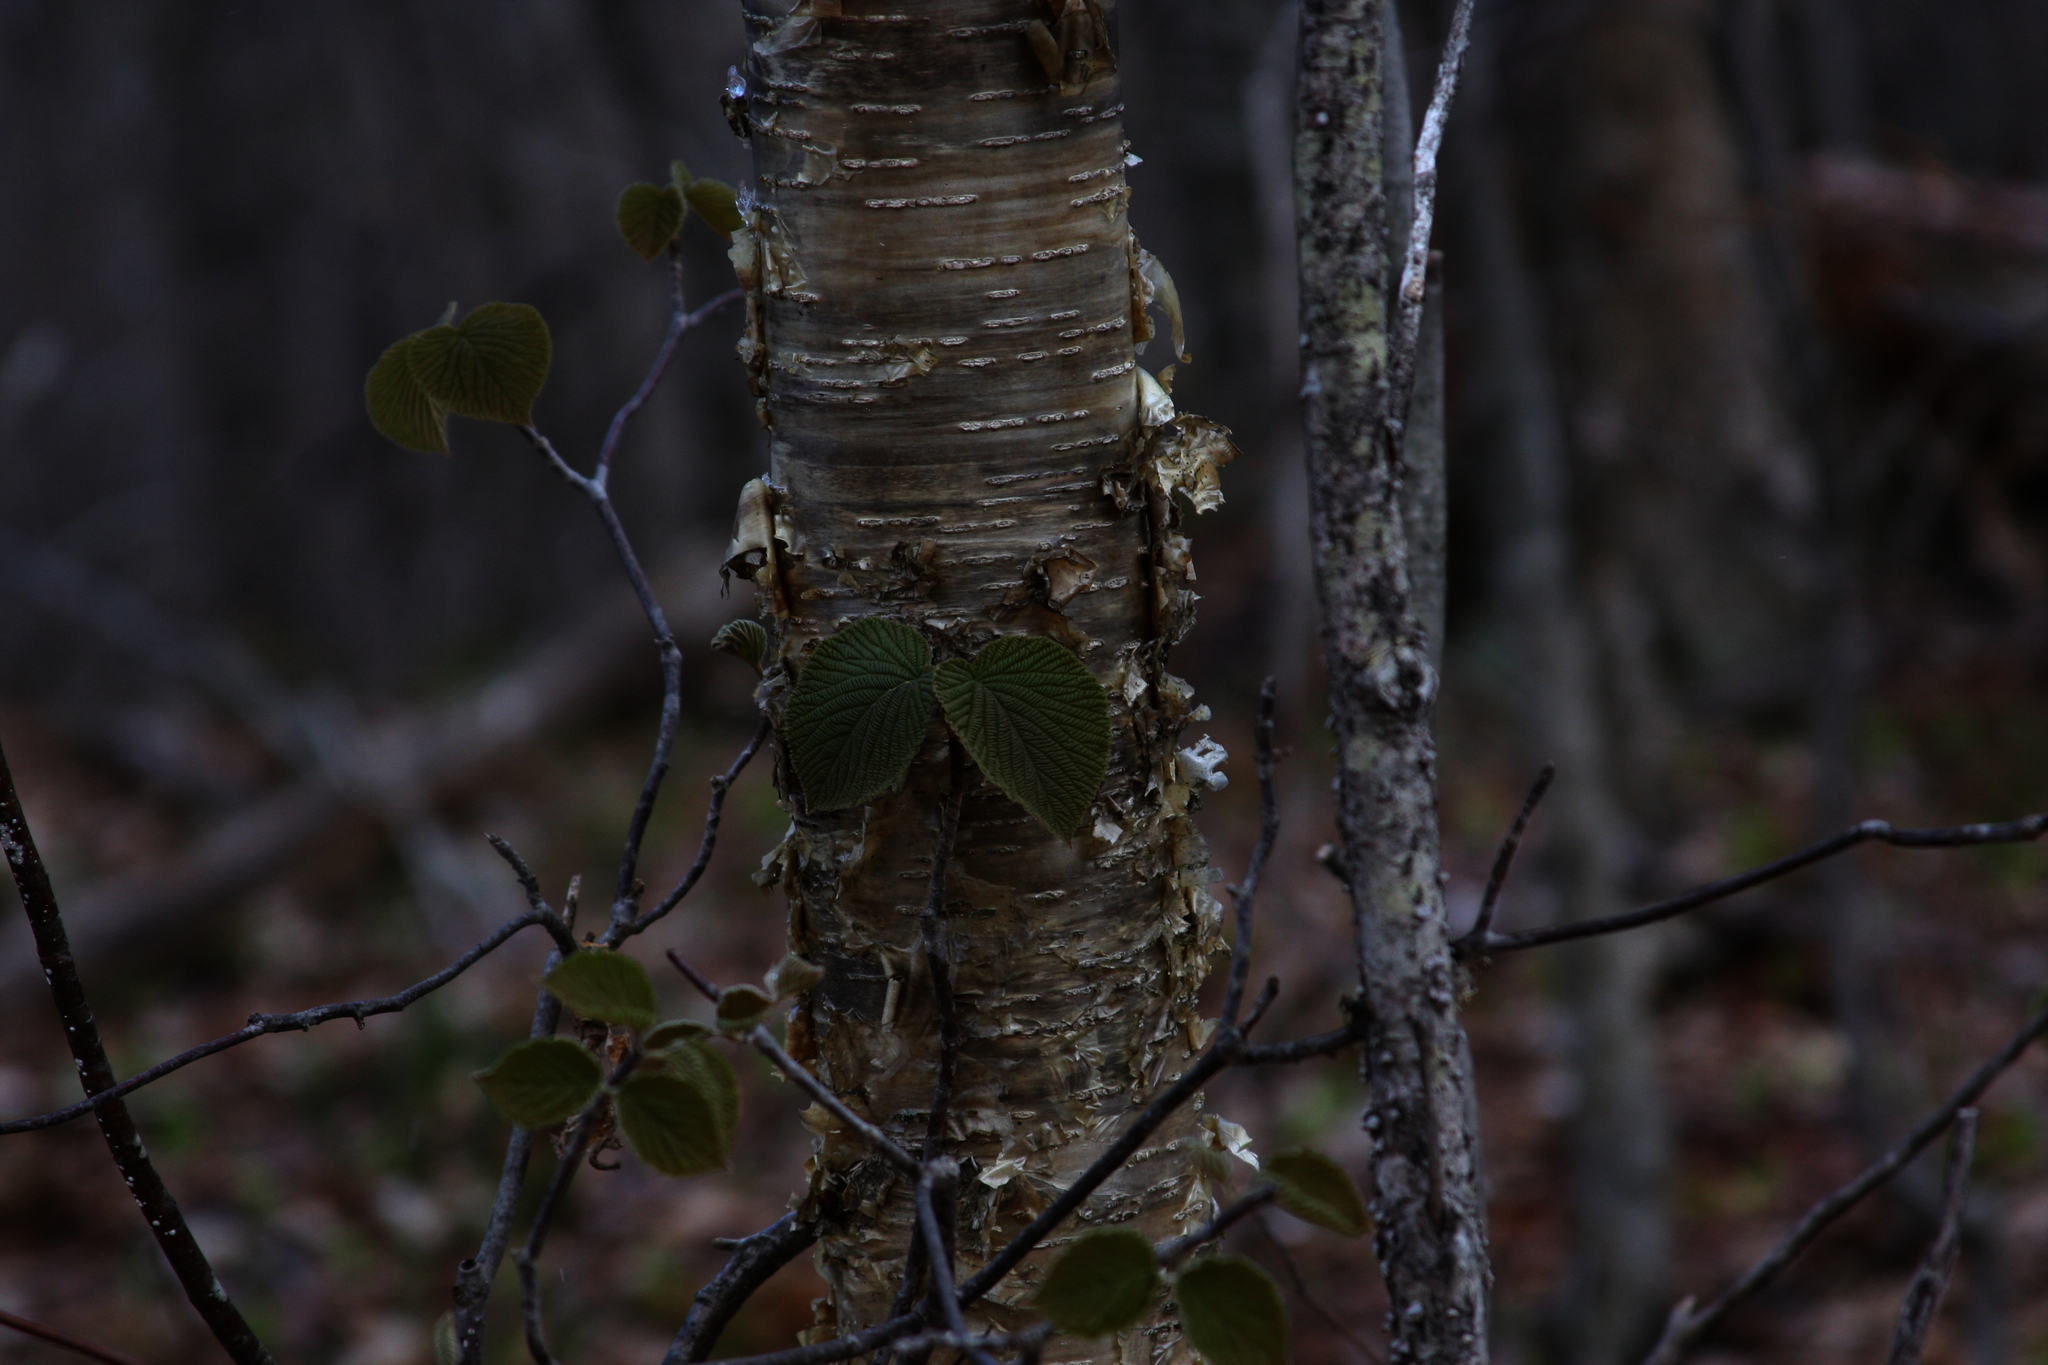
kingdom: Plantae
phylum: Tracheophyta
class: Magnoliopsida
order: Fagales
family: Betulaceae
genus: Betula
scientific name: Betula alleghaniensis
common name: Yellow birch
